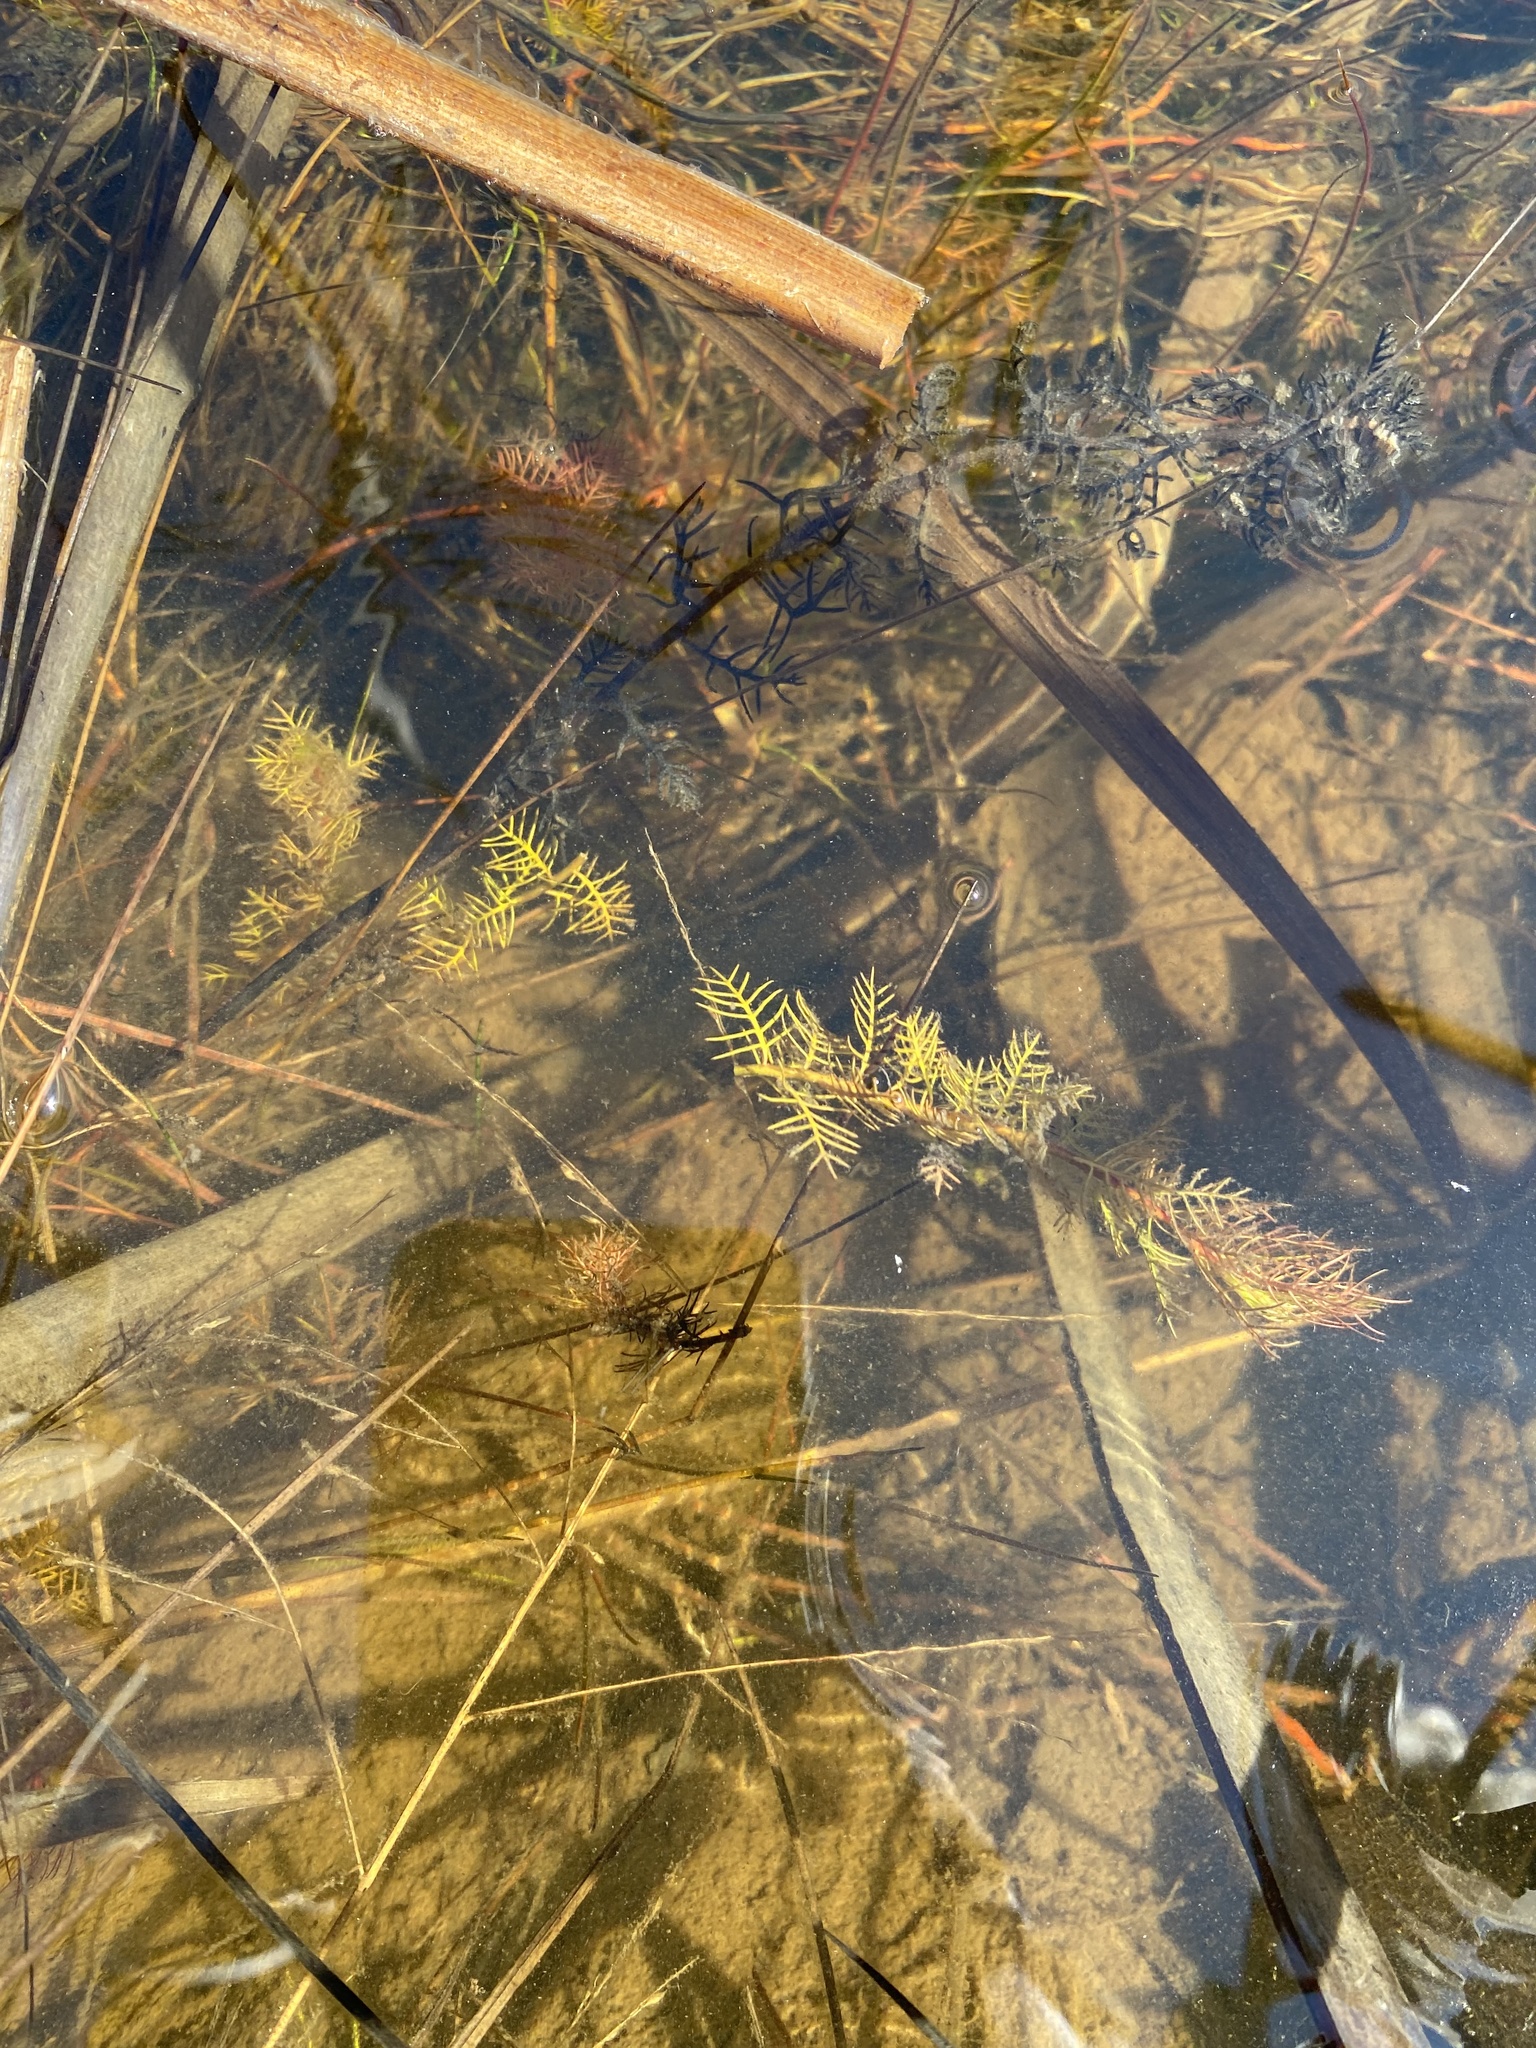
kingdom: Plantae
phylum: Tracheophyta
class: Magnoliopsida
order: Saxifragales
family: Haloragaceae
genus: Proserpinaca
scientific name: Proserpinaca palustris
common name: Marsh mermaidweed
